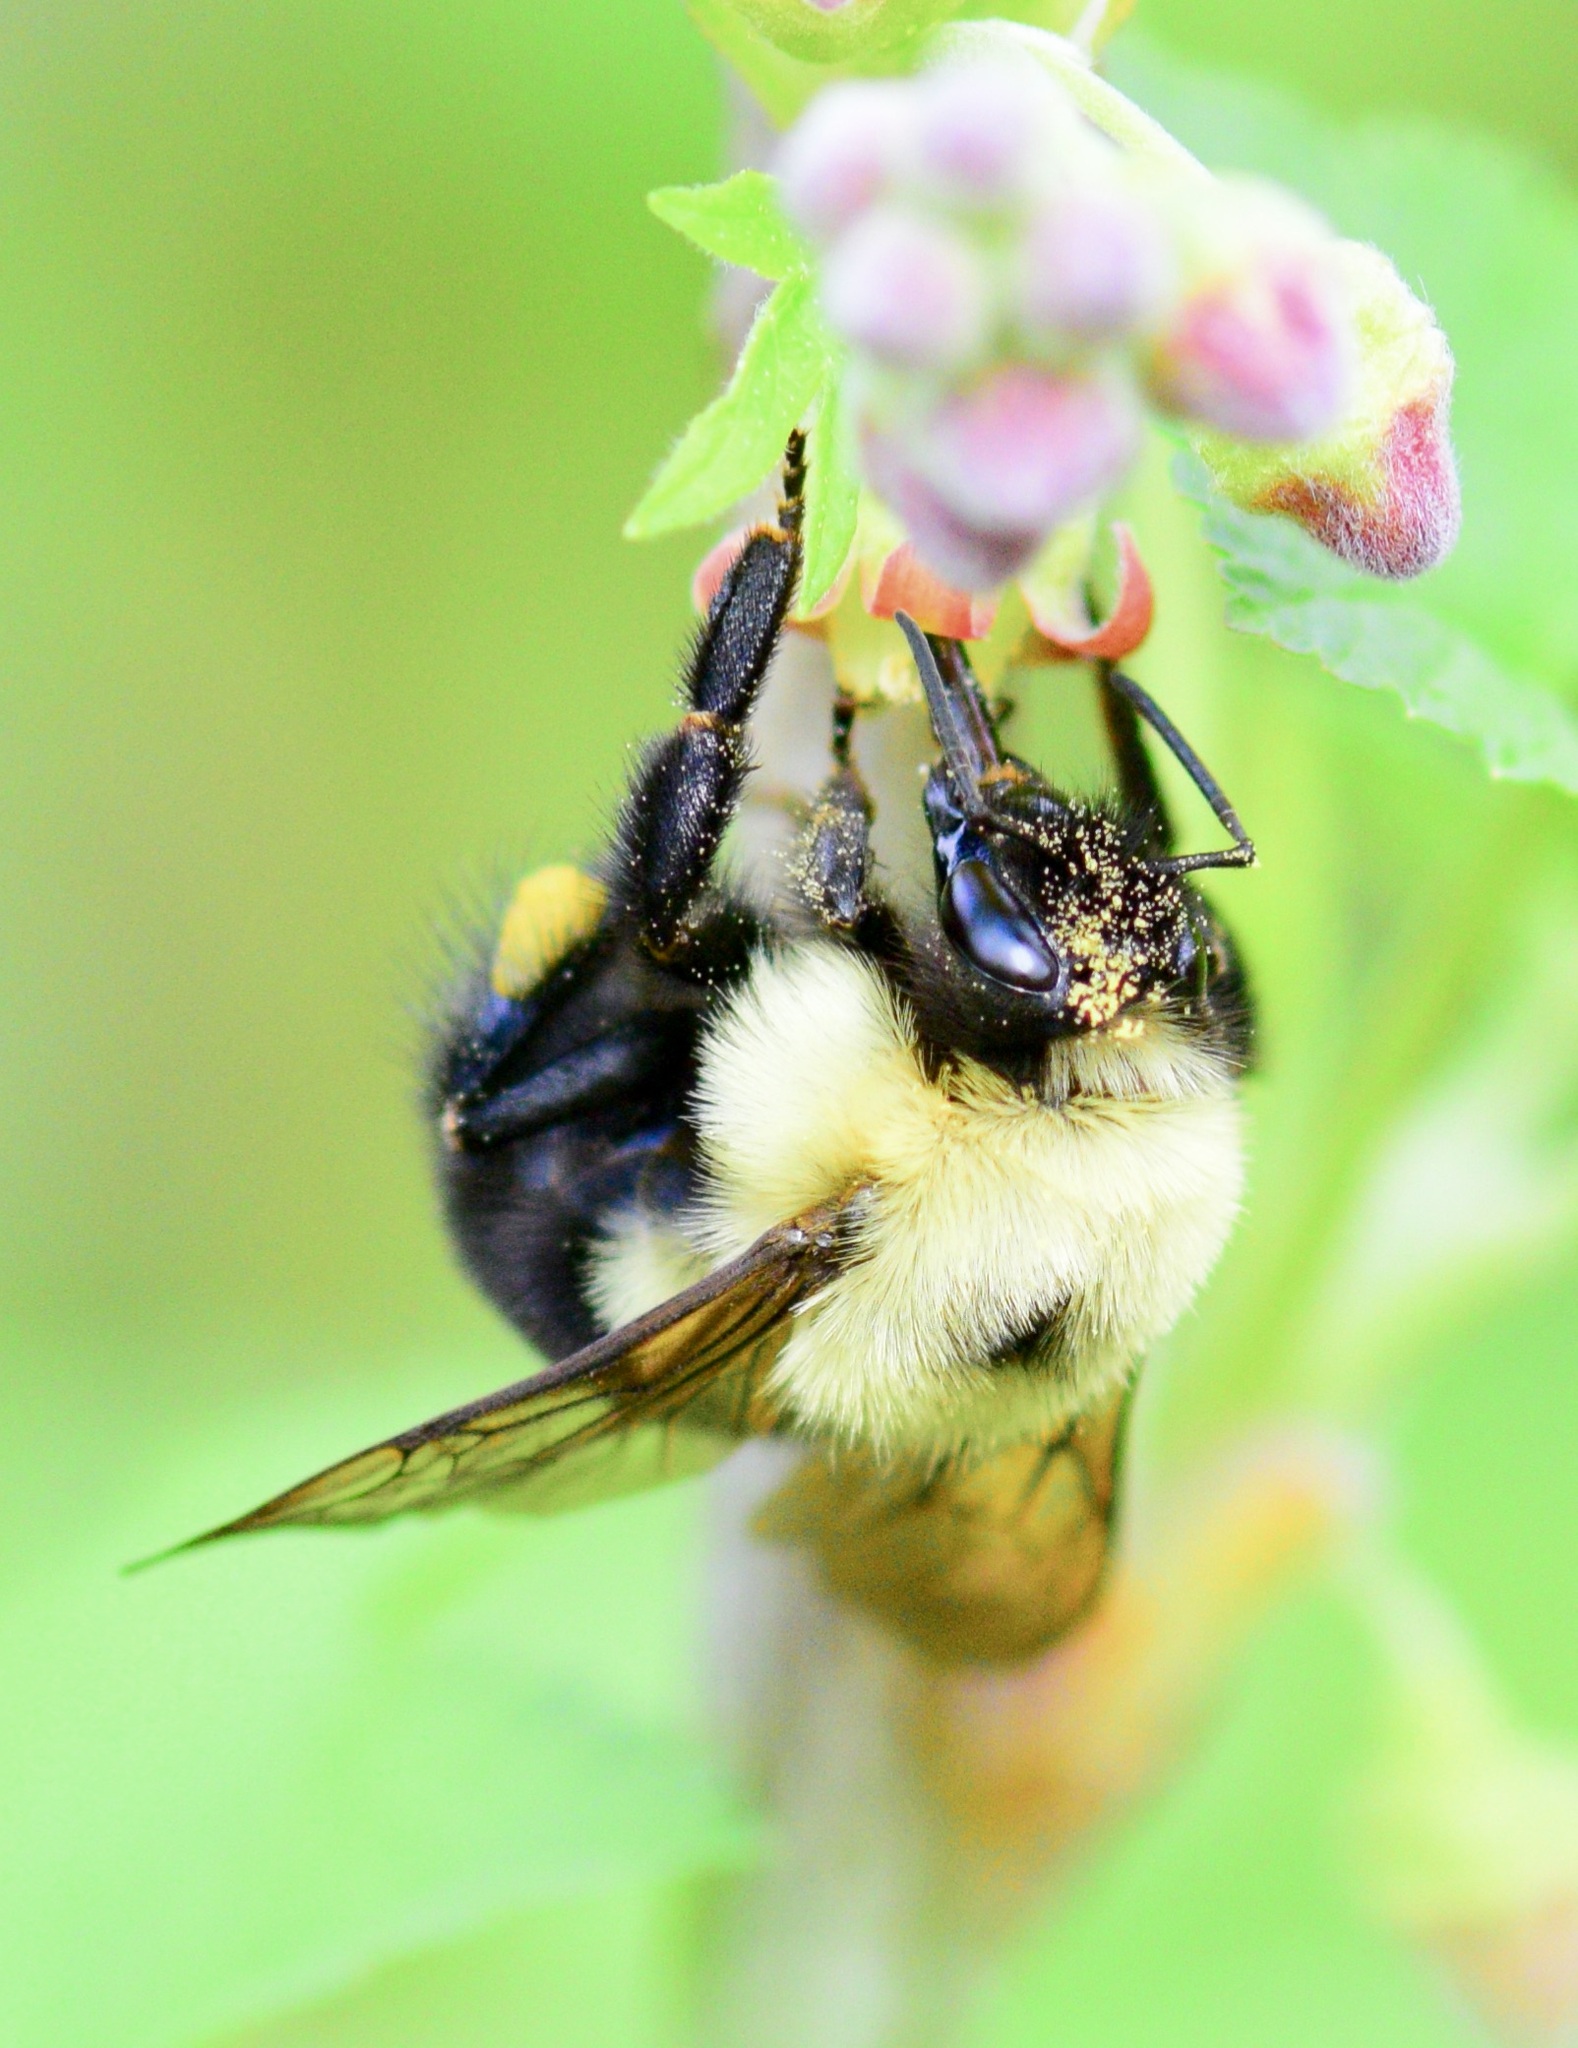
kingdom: Animalia
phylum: Arthropoda
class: Insecta
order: Hymenoptera
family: Apidae
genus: Bombus
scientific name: Bombus bimaculatus
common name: Two-spotted bumble bee
